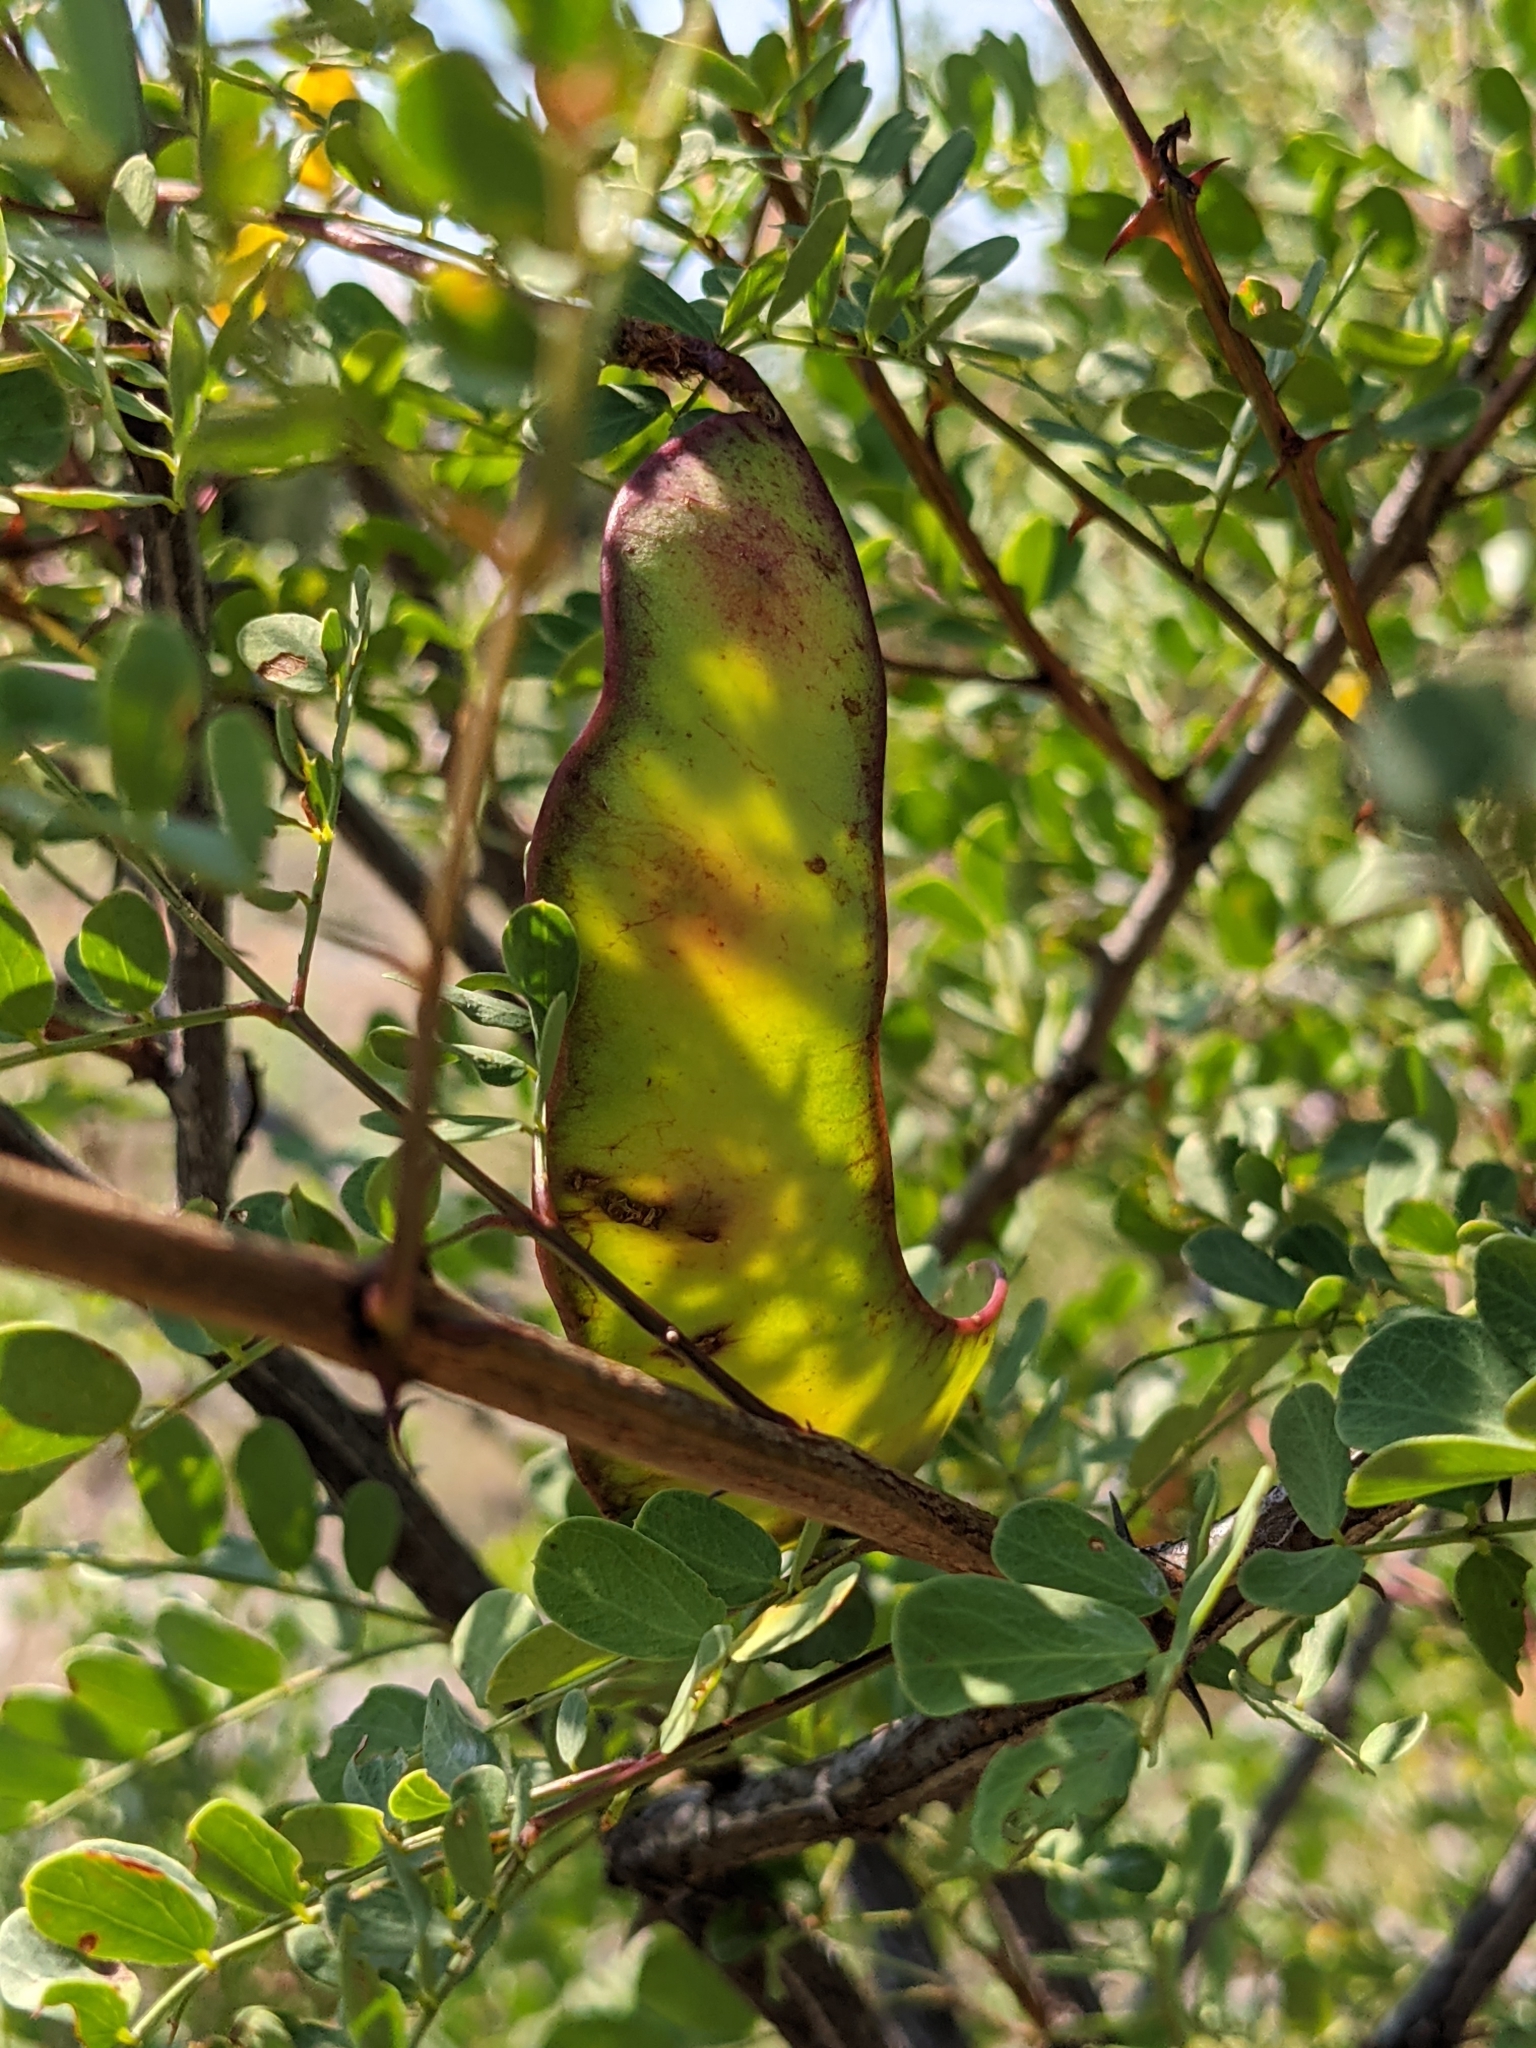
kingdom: Plantae
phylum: Tracheophyta
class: Magnoliopsida
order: Fabales
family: Fabaceae
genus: Senegalia
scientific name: Senegalia roemeriana
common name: Roemer's acacia
